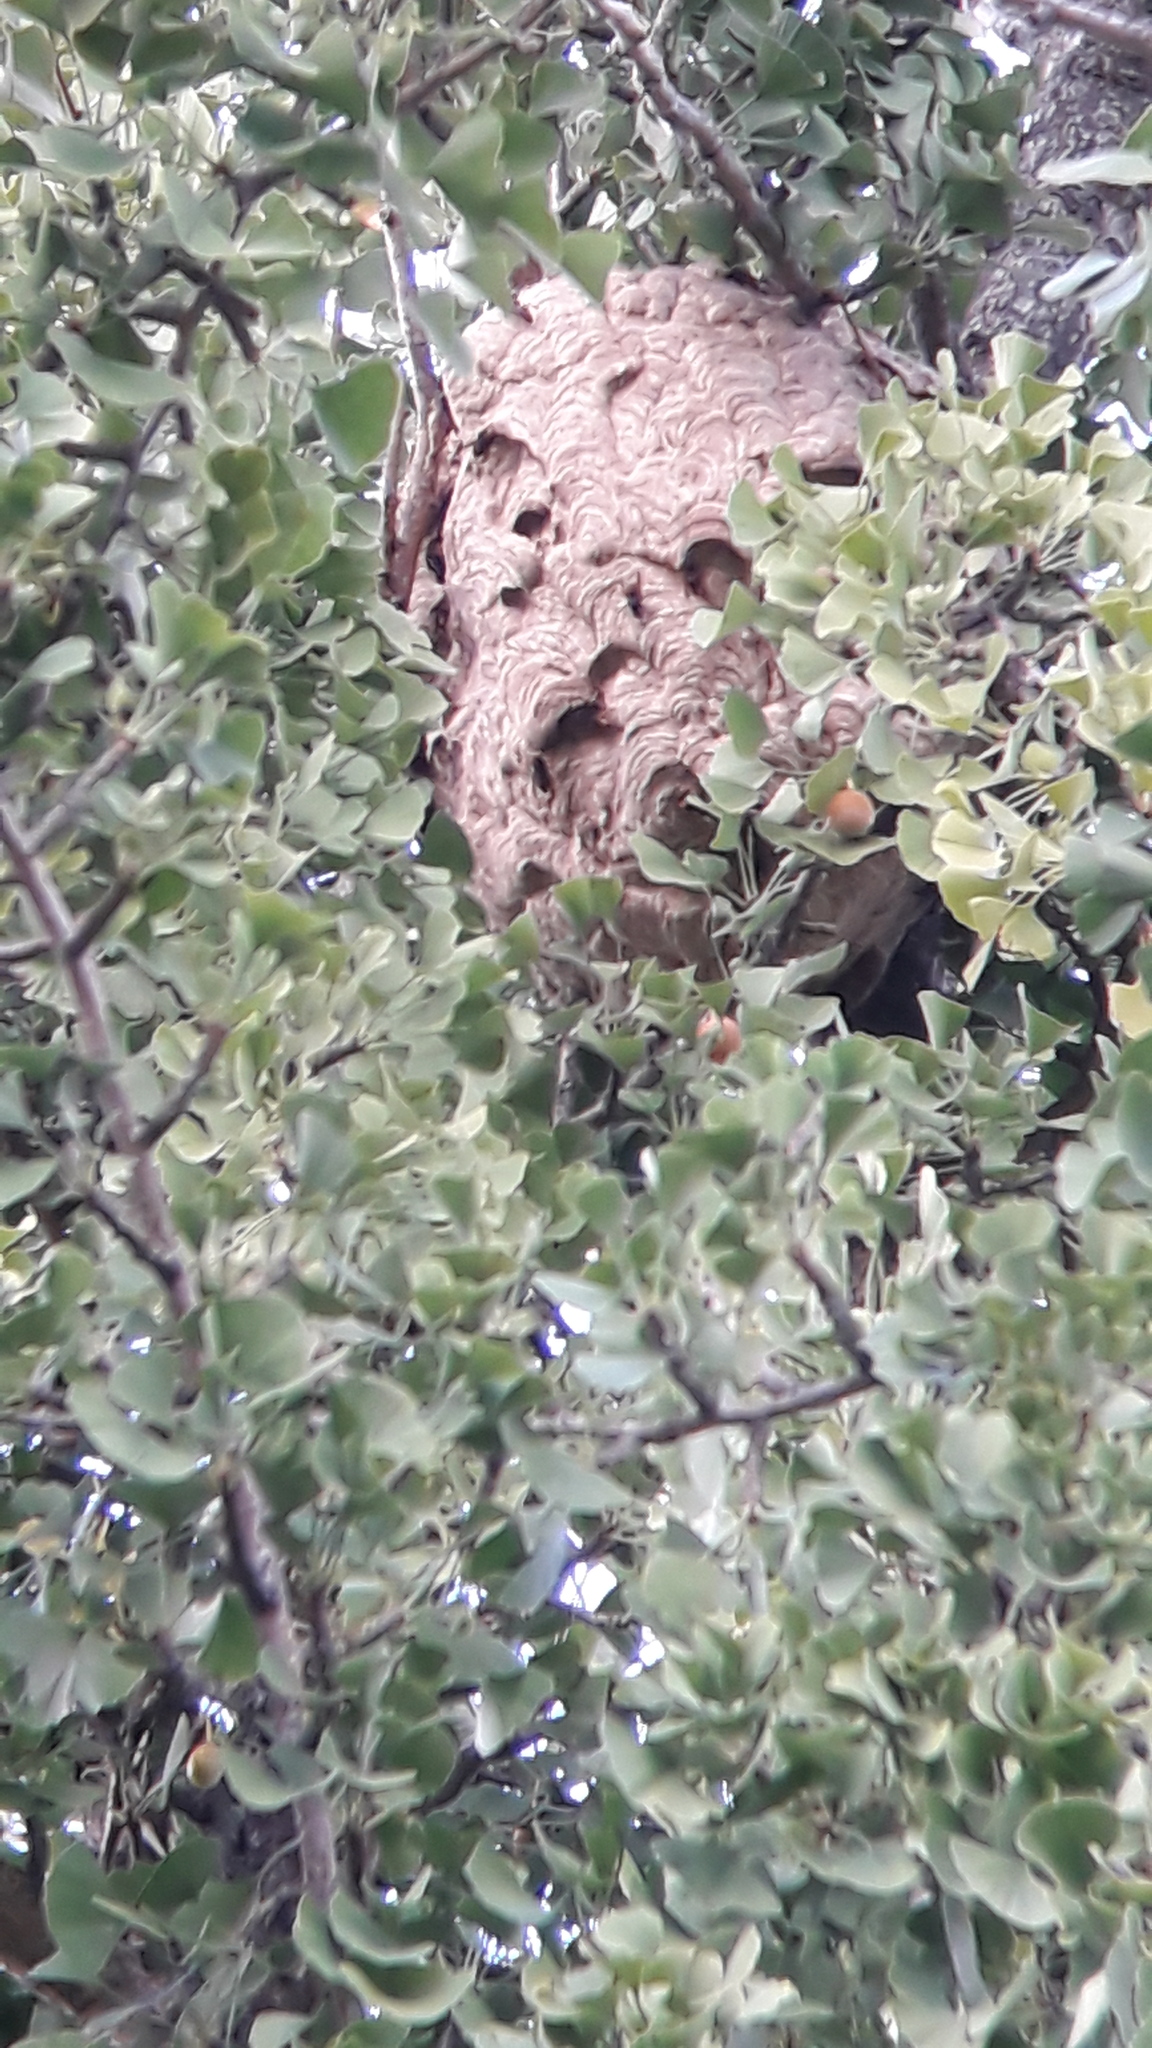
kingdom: Animalia
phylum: Arthropoda
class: Insecta
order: Hymenoptera
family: Vespidae
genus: Vespa
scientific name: Vespa velutina
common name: Asian hornet
